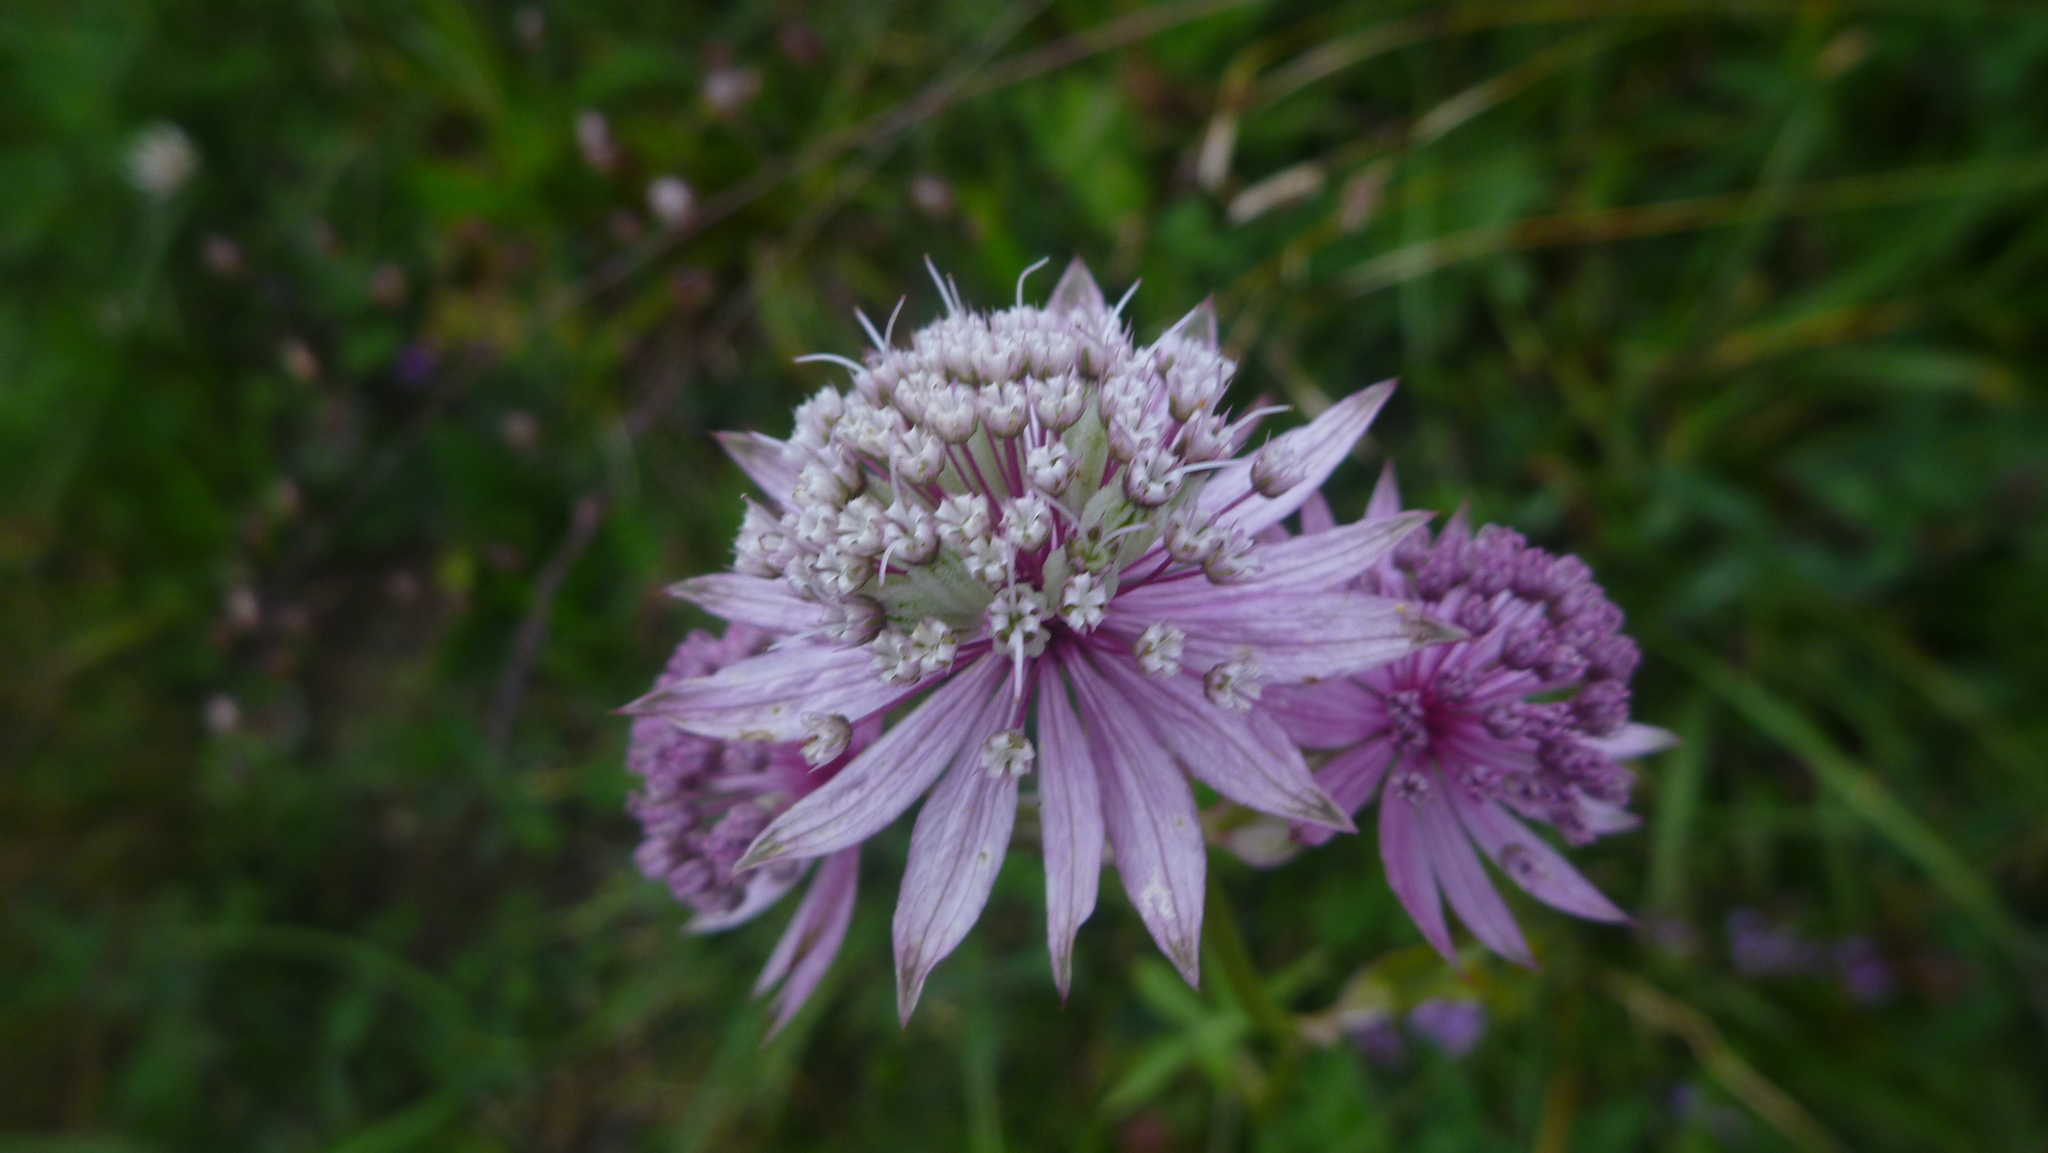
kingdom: Plantae
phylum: Tracheophyta
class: Magnoliopsida
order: Apiales
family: Apiaceae
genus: Astrantia
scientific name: Astrantia major
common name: Greater masterwort
